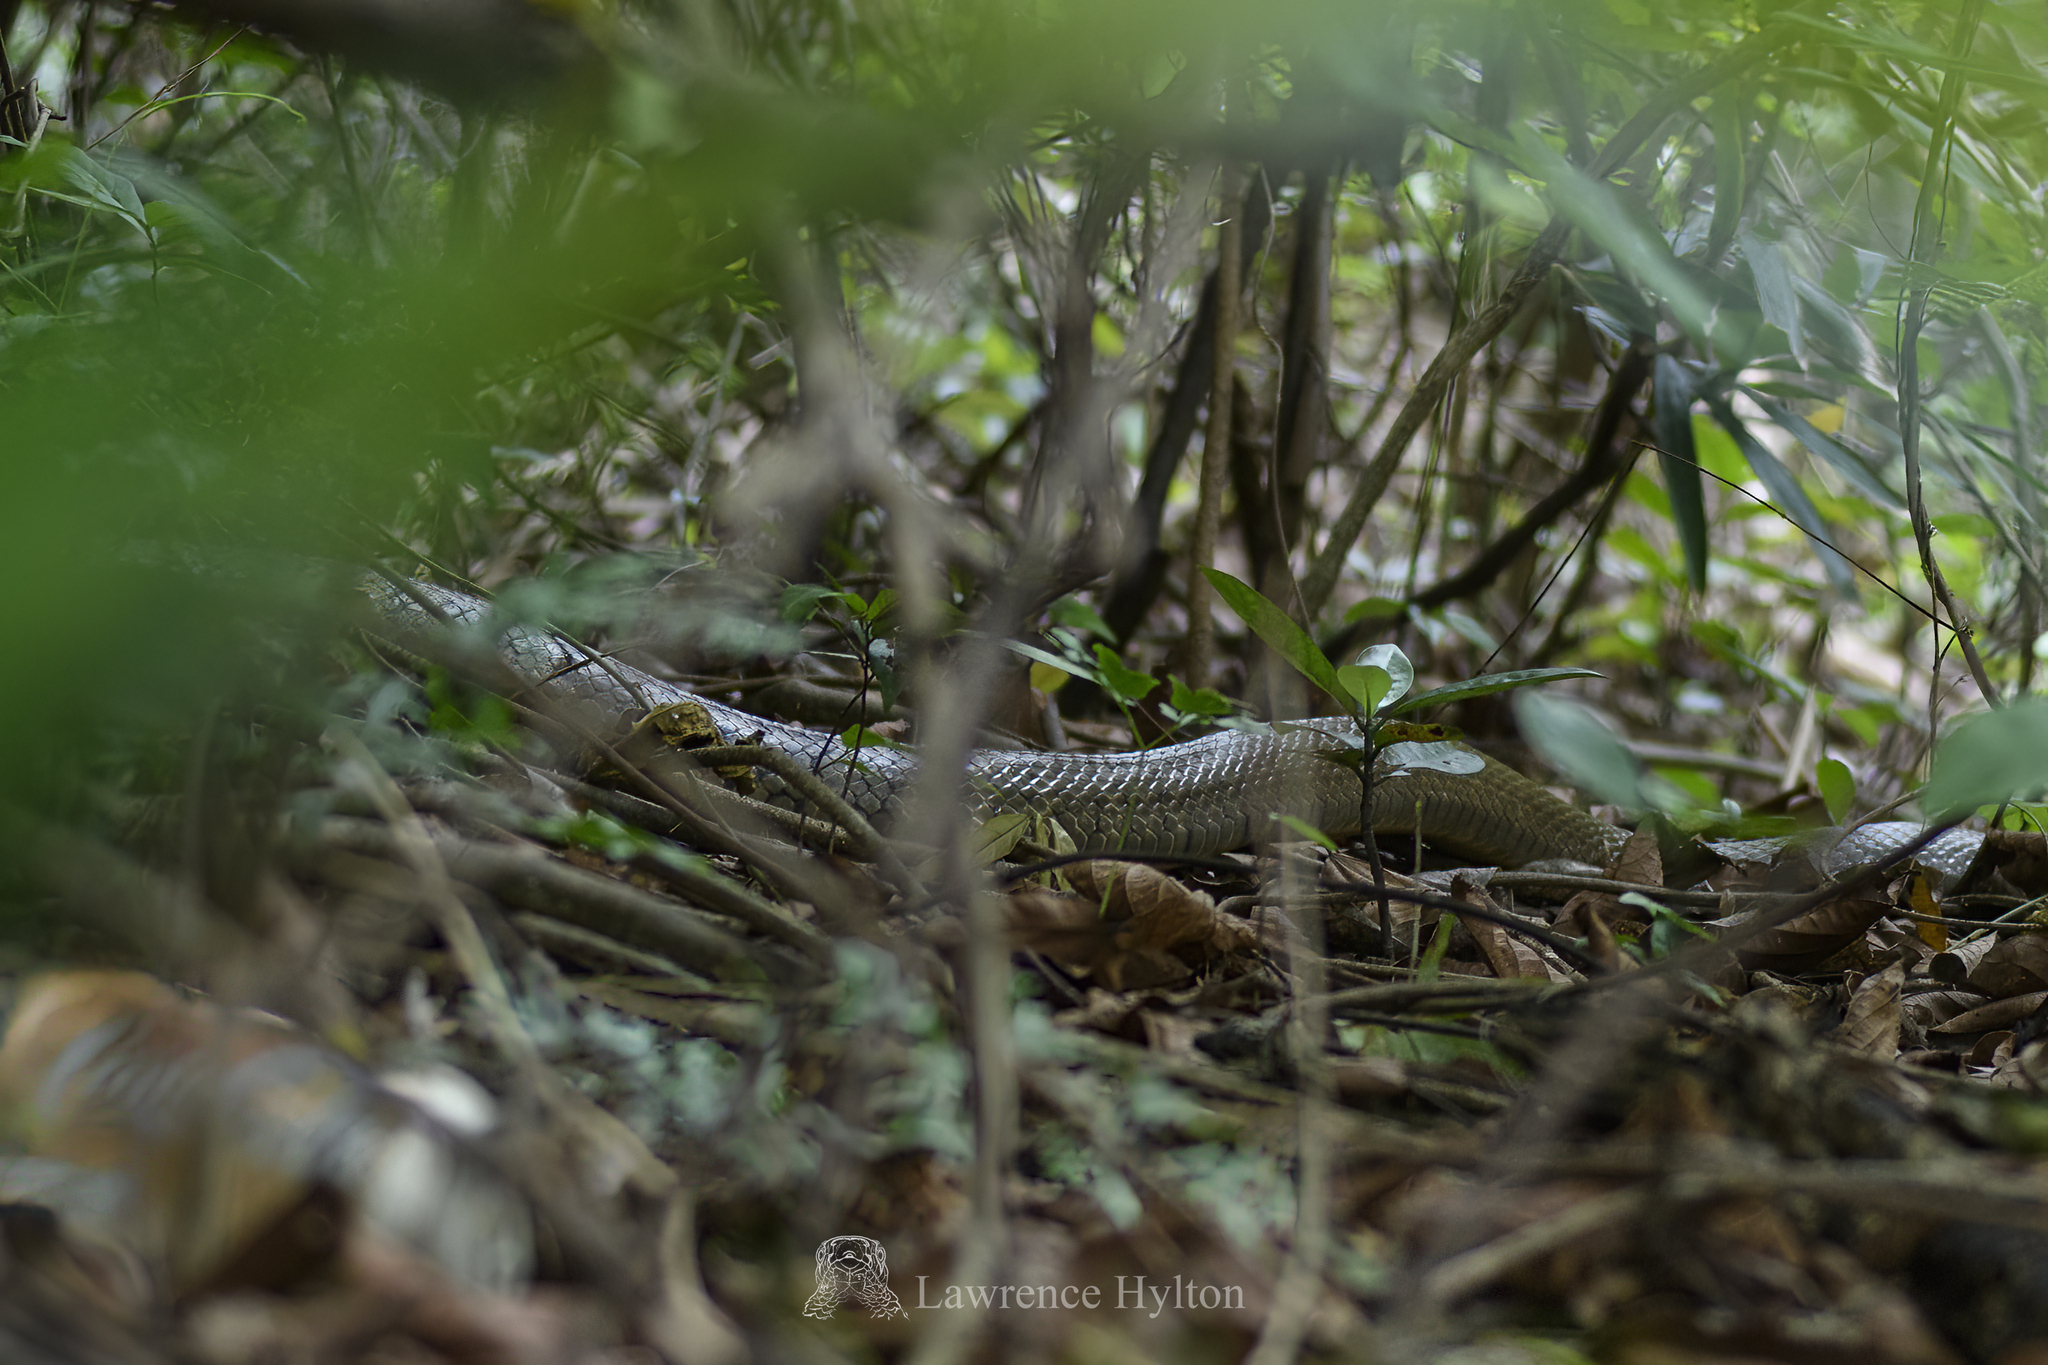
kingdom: Animalia
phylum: Chordata
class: Squamata
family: Colubridae
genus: Ptyas
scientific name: Ptyas mucosa
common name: Oriental ratsnake
